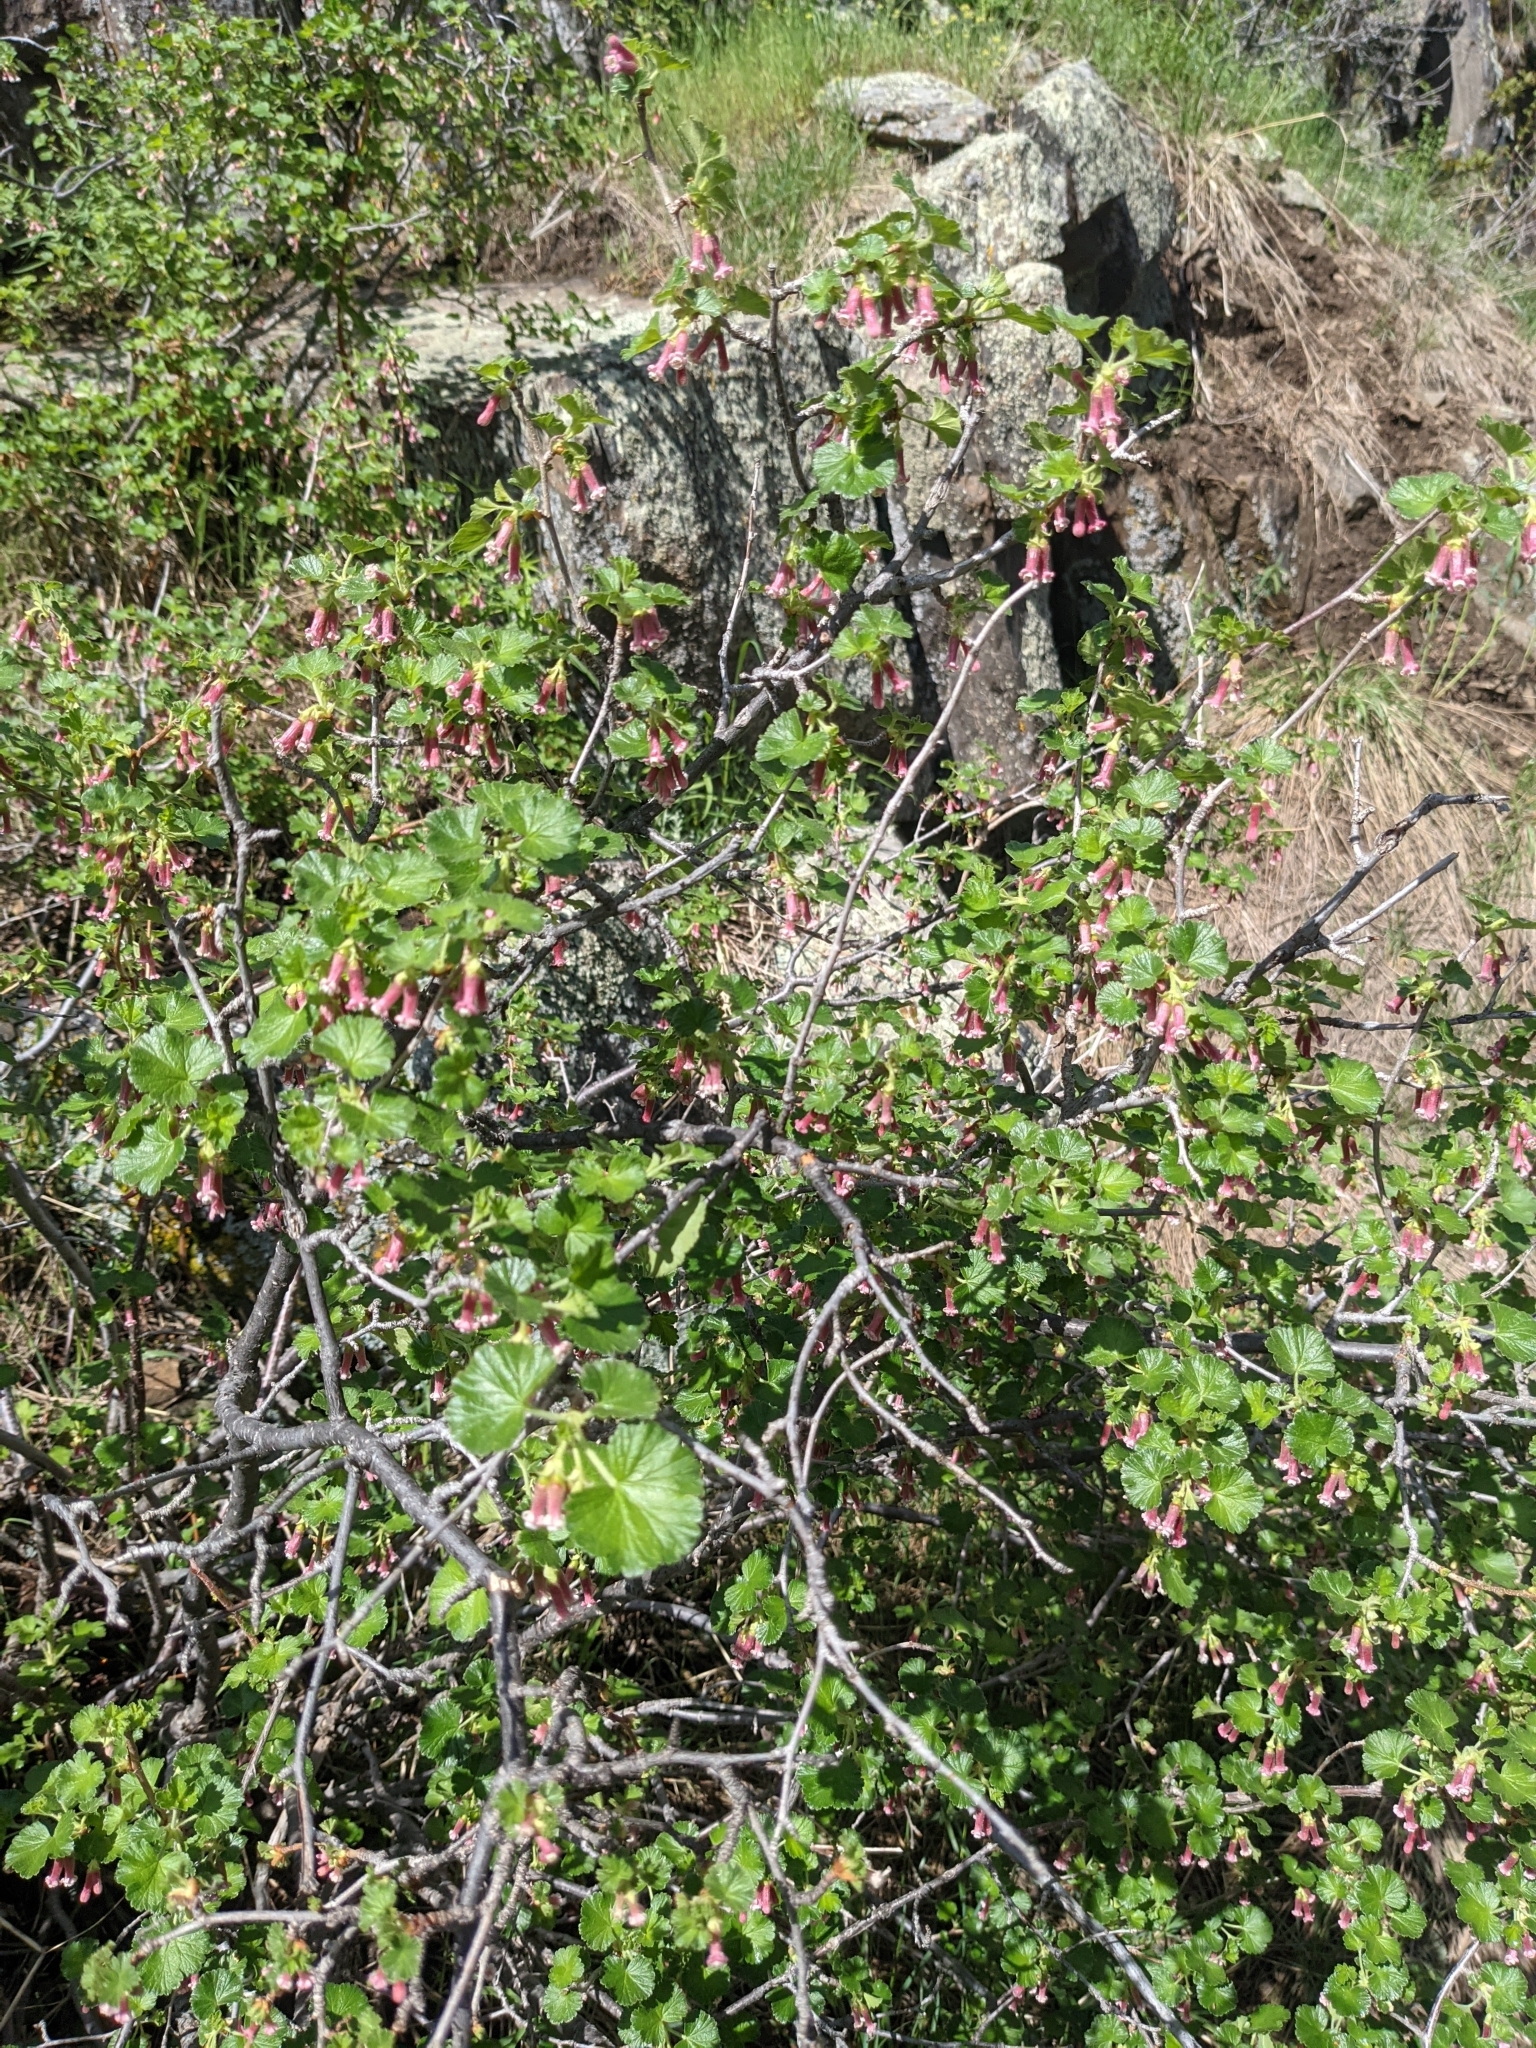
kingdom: Plantae
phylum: Tracheophyta
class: Magnoliopsida
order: Saxifragales
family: Grossulariaceae
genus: Ribes
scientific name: Ribes cereum
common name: Wax currant
